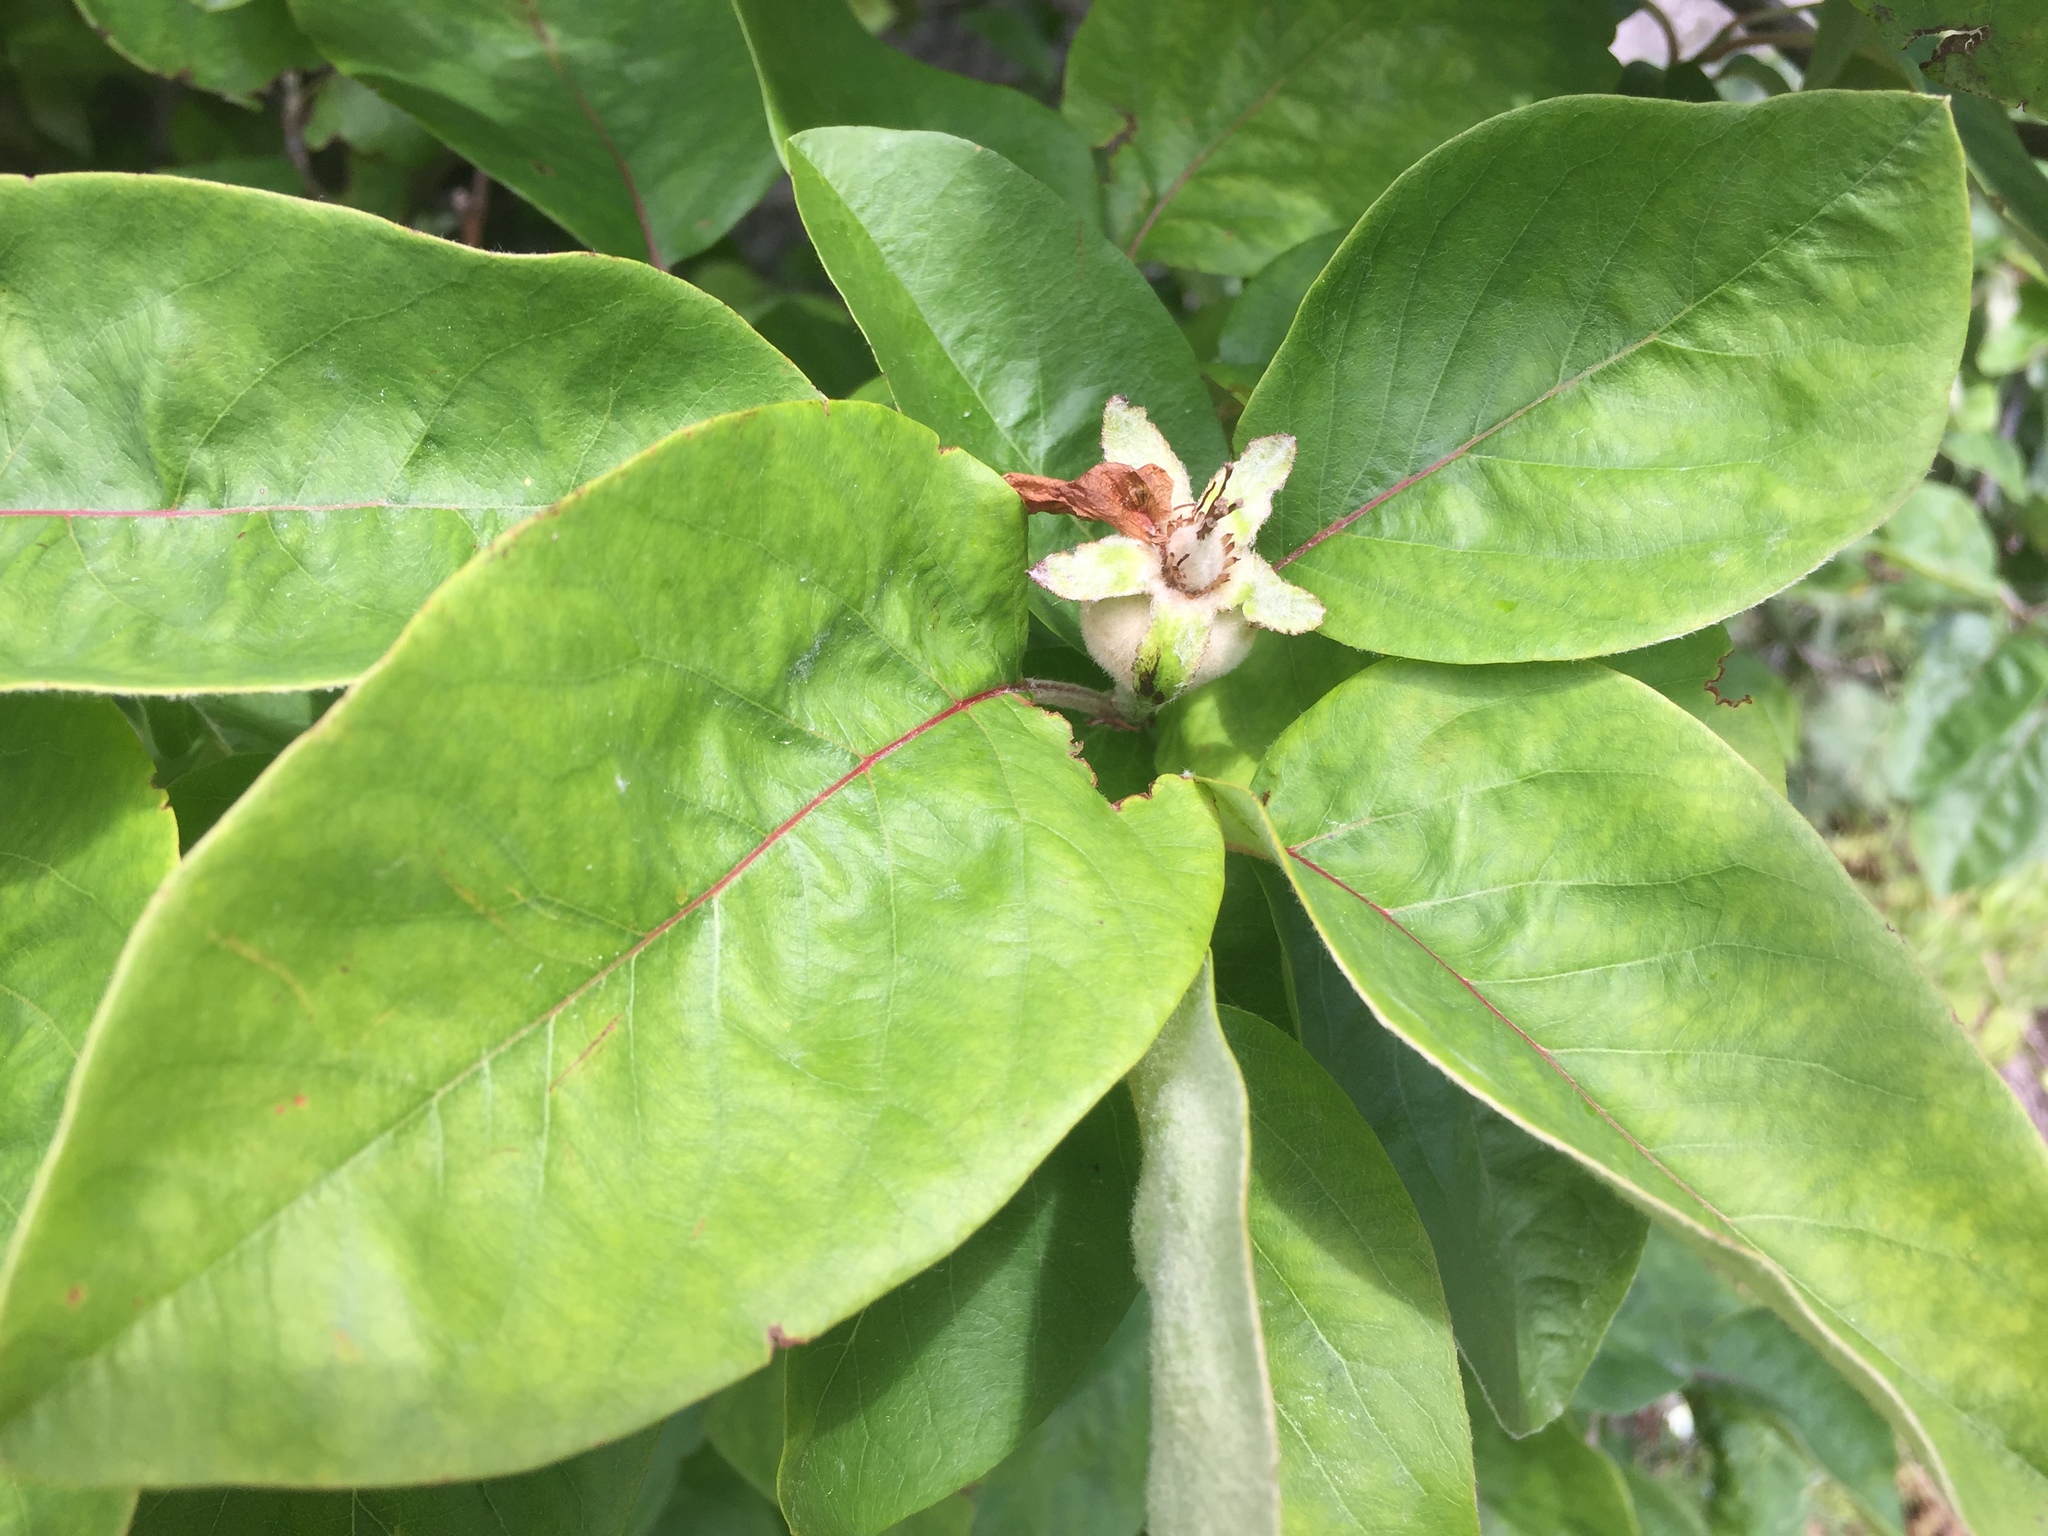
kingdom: Plantae
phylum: Tracheophyta
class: Magnoliopsida
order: Rosales
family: Rosaceae
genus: Cydonia
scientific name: Cydonia oblonga
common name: Quince
